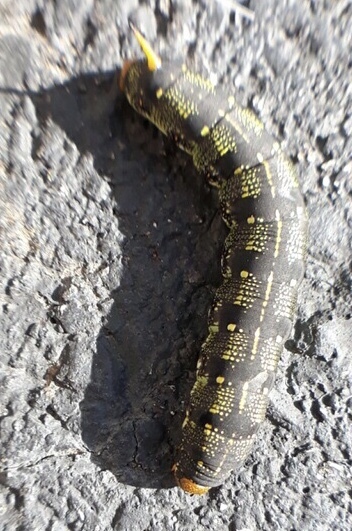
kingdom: Animalia
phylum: Arthropoda
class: Insecta
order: Lepidoptera
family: Sphingidae
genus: Hyles
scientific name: Hyles lineata
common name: White-lined sphinx
